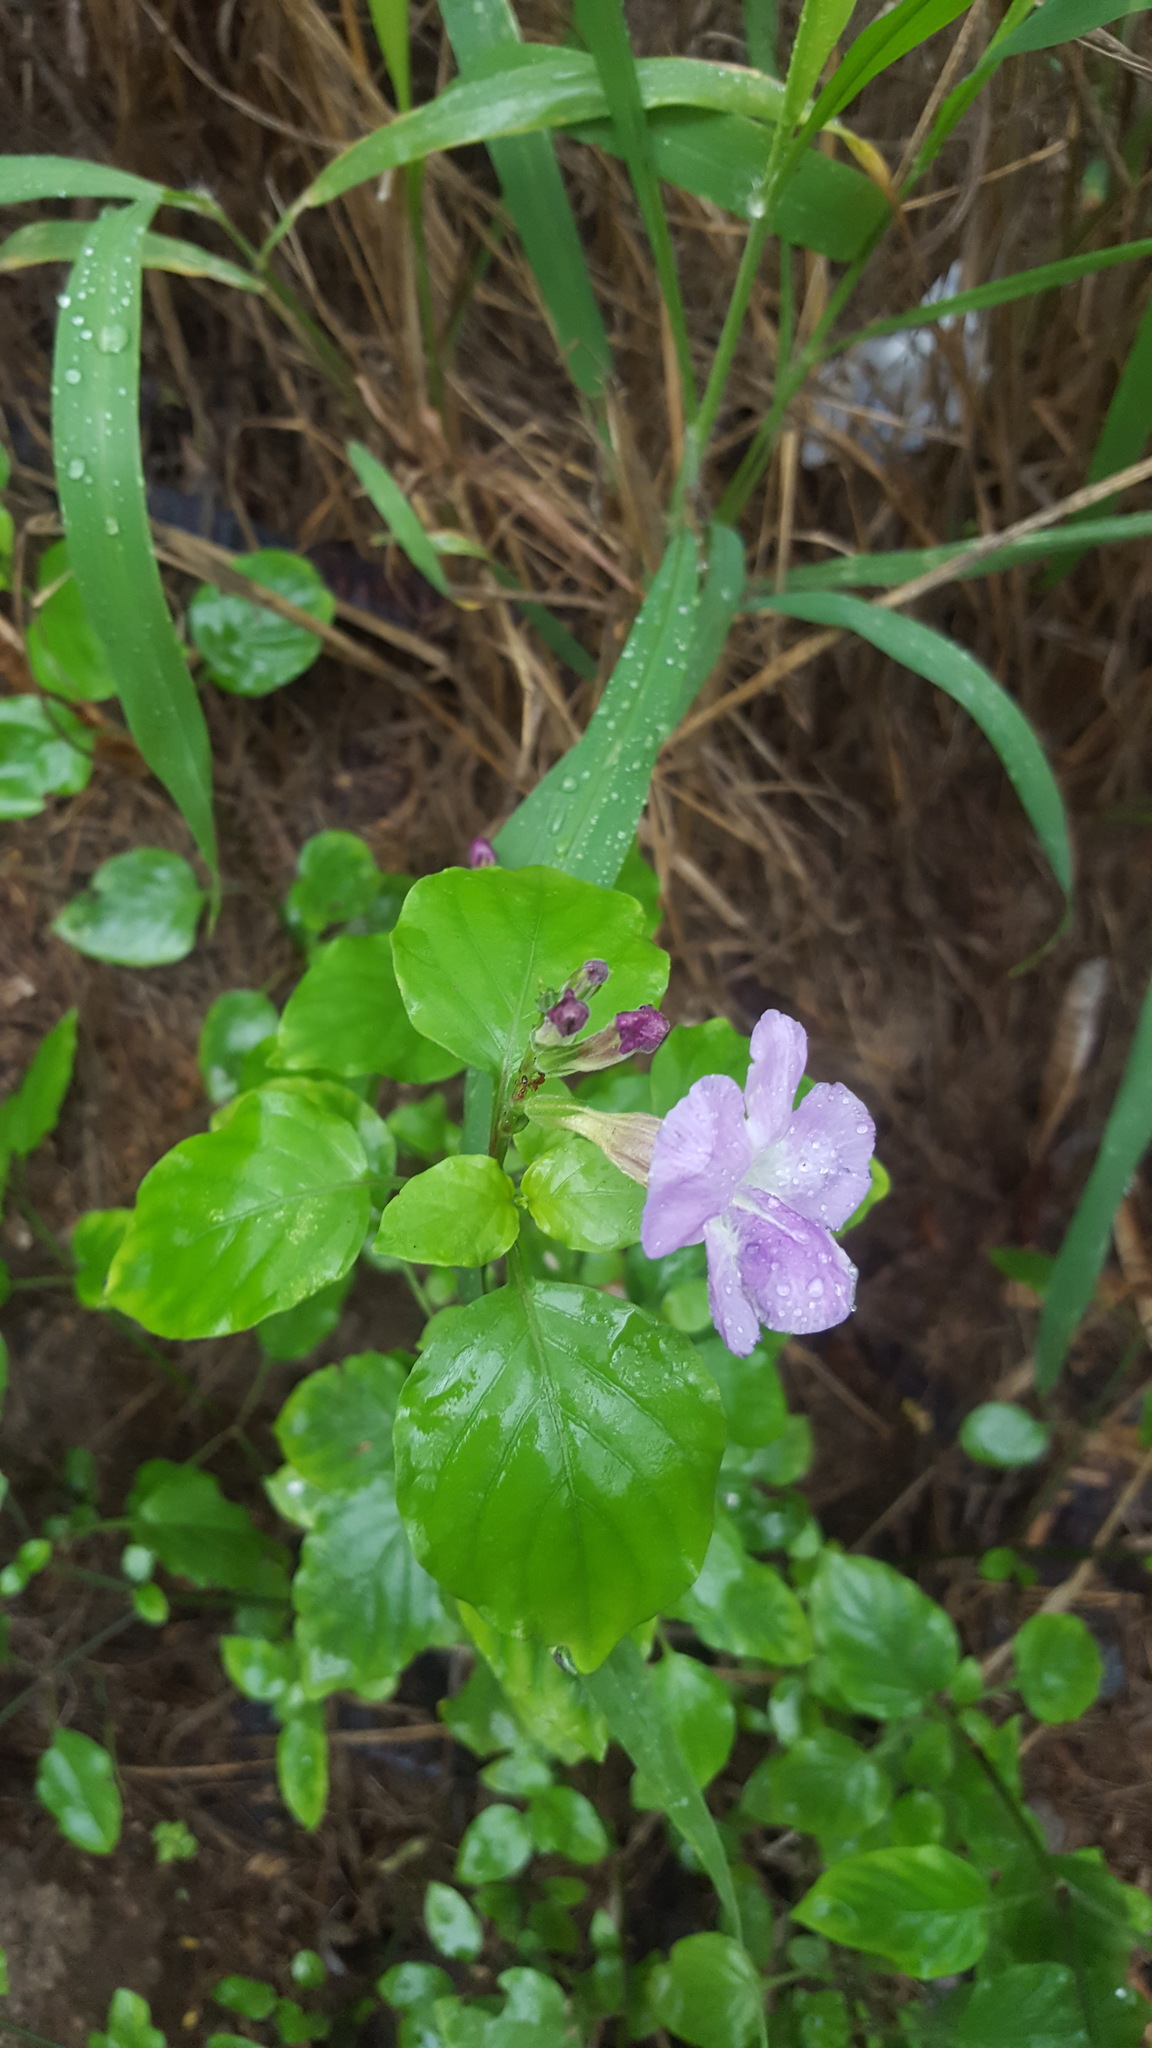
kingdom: Plantae
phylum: Tracheophyta
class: Magnoliopsida
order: Lamiales
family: Acanthaceae
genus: Asystasia
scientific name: Asystasia gangetica
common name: Chinese violet
